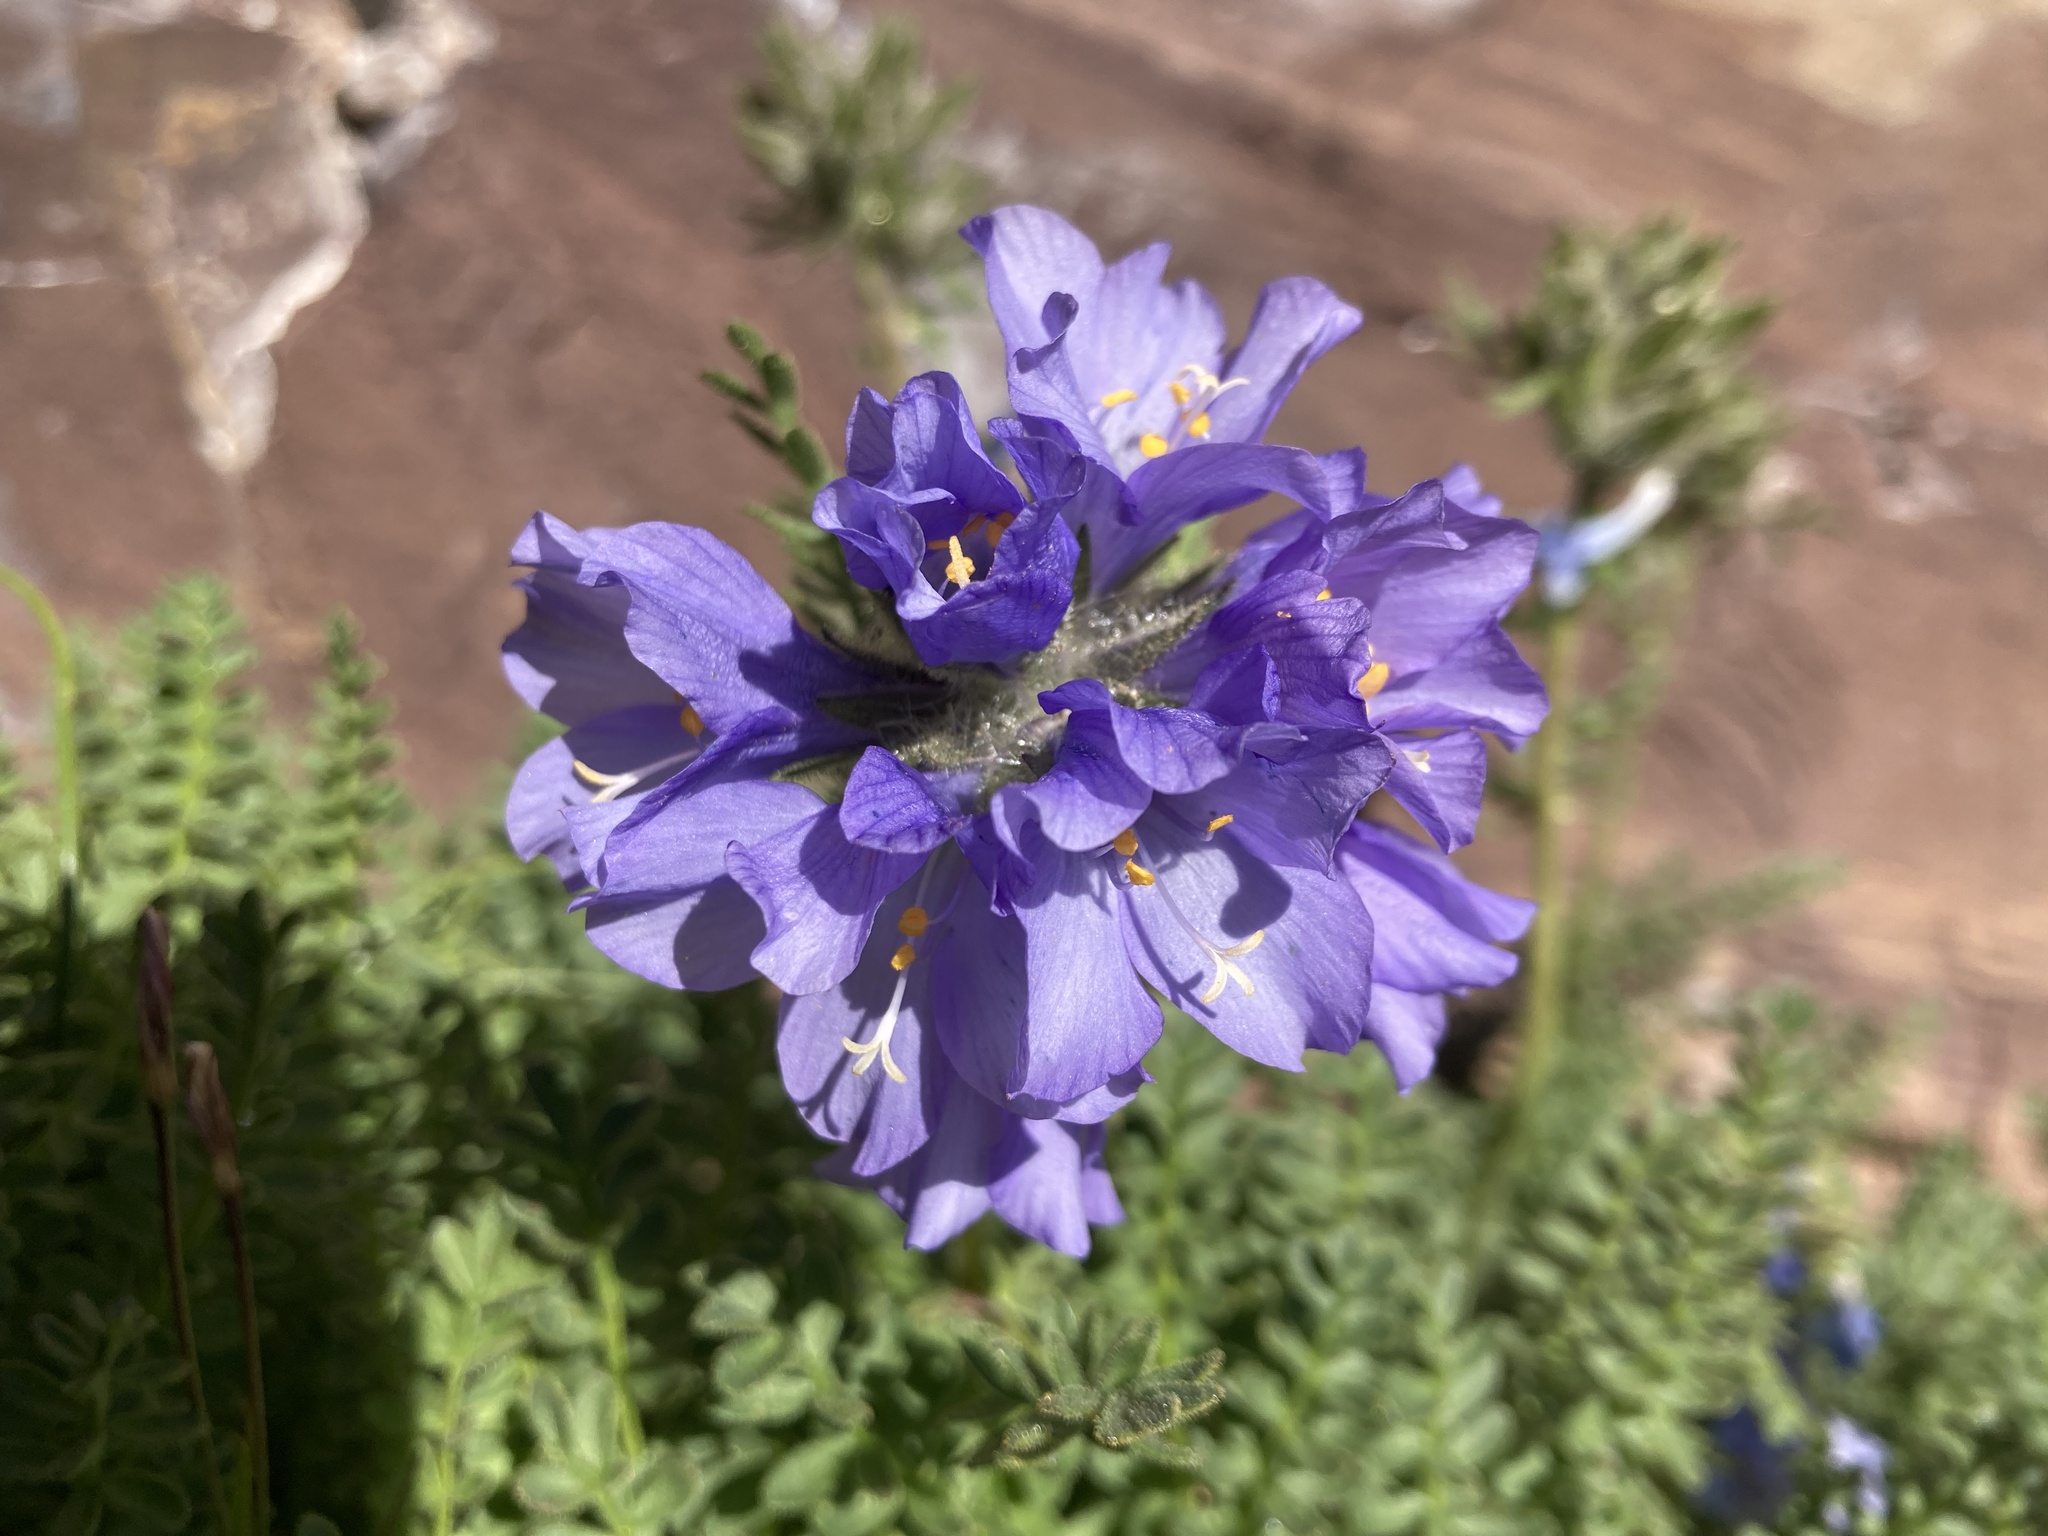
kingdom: Plantae
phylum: Tracheophyta
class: Magnoliopsida
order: Ericales
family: Polemoniaceae
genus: Polemonium
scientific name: Polemonium viscosum
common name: Skunk jacob's-ladder
